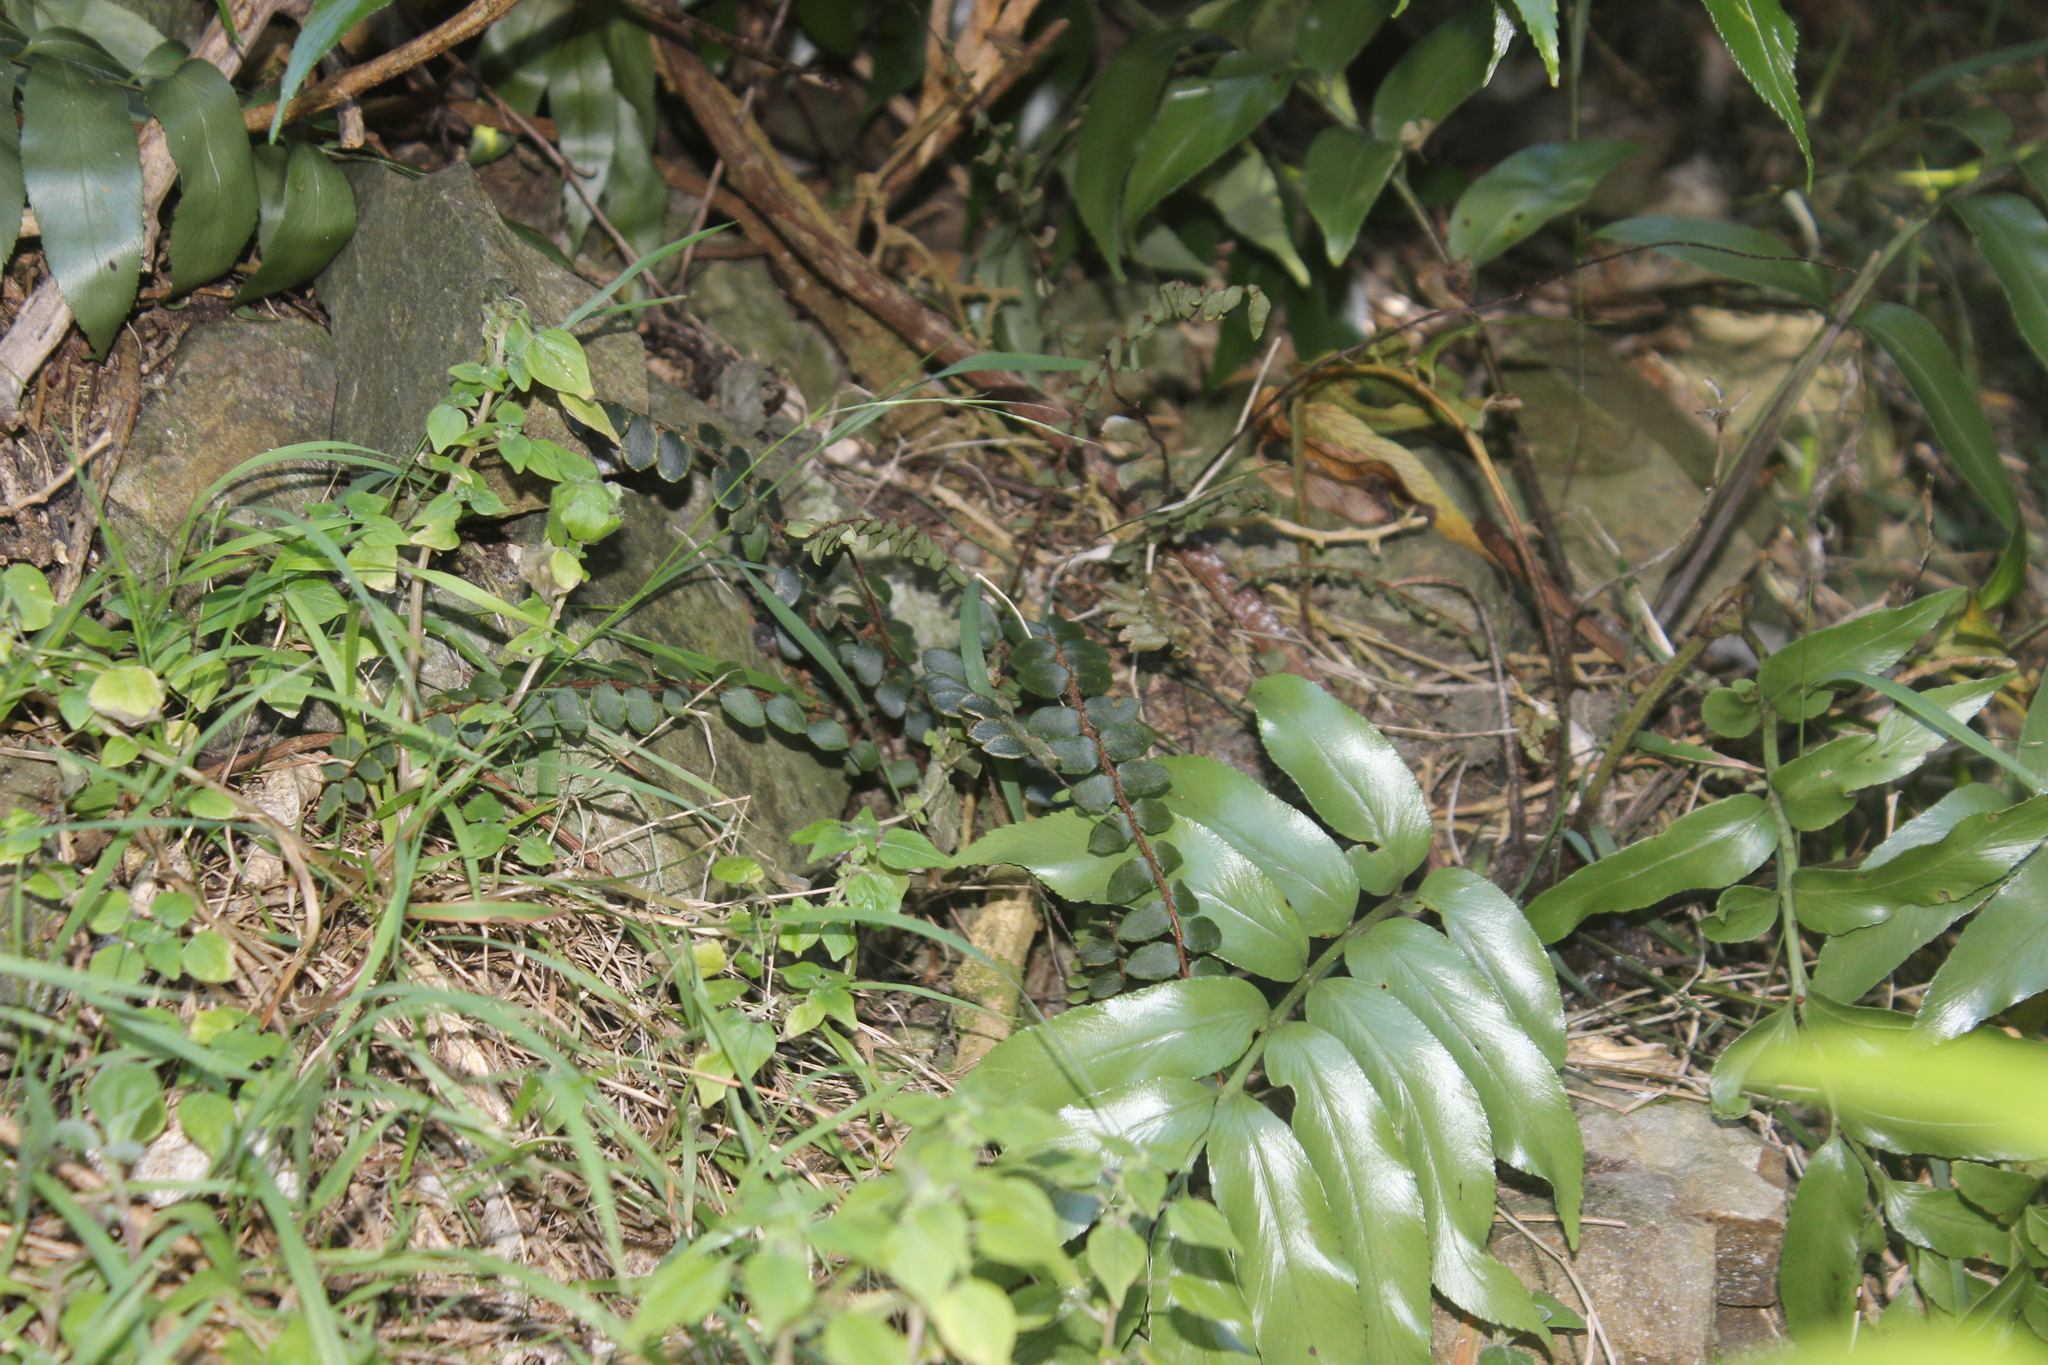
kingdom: Plantae
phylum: Tracheophyta
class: Polypodiopsida
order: Polypodiales
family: Pteridaceae
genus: Pellaea
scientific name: Pellaea rotundifolia
